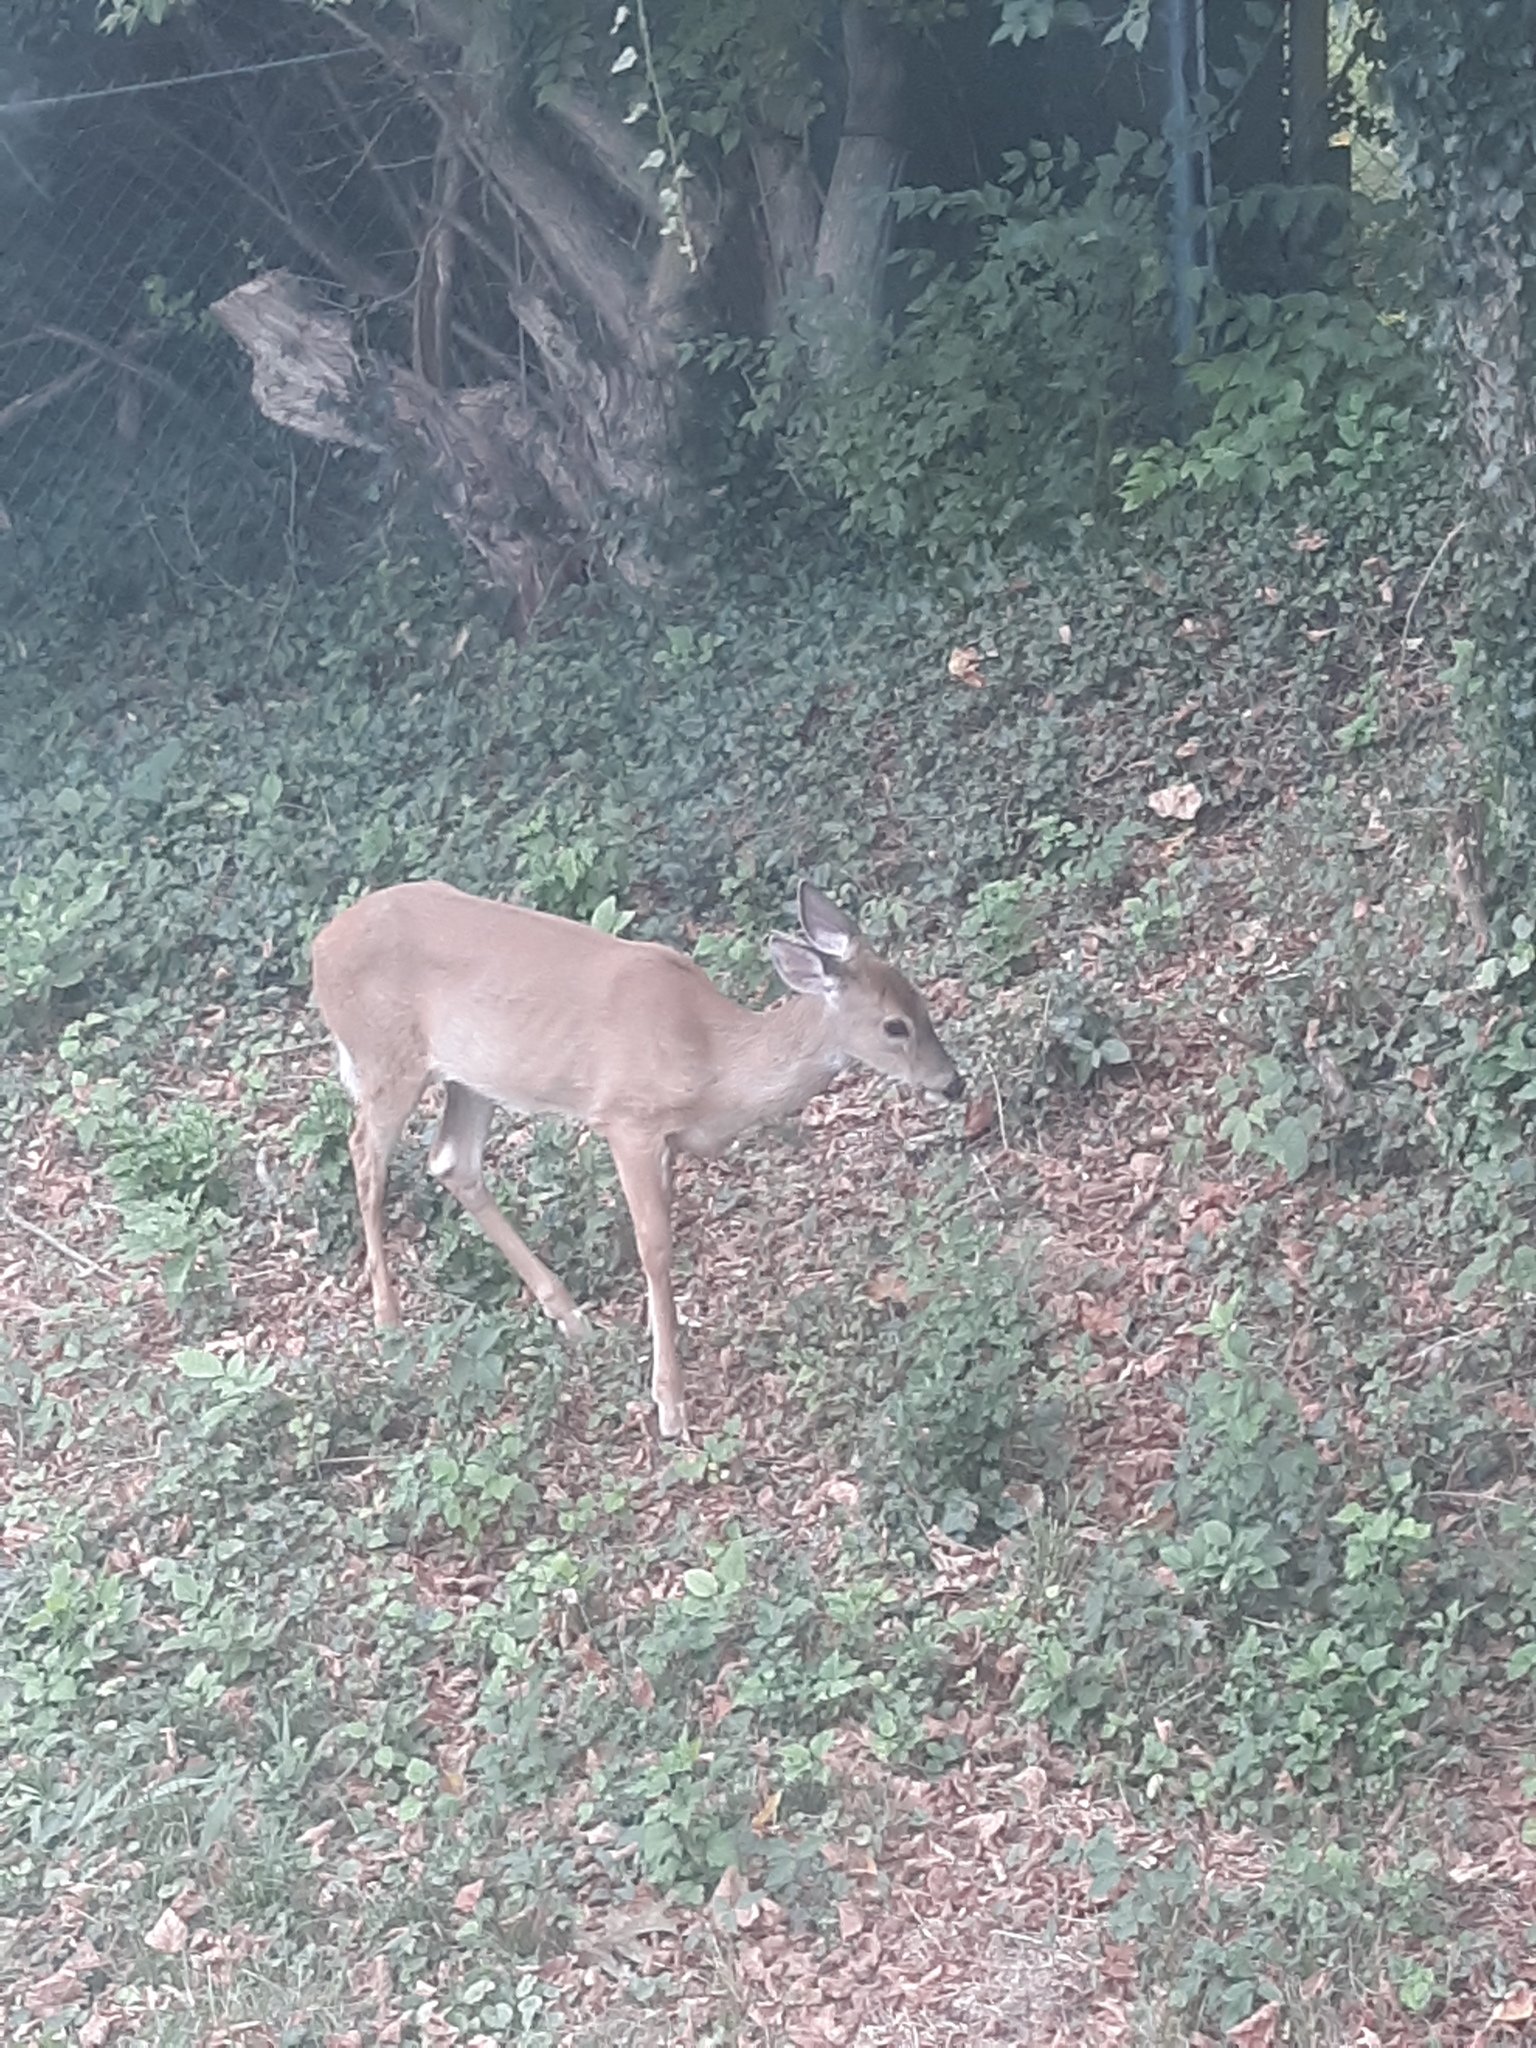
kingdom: Animalia
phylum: Chordata
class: Mammalia
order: Artiodactyla
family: Cervidae
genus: Odocoileus
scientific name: Odocoileus virginianus
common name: White-tailed deer
